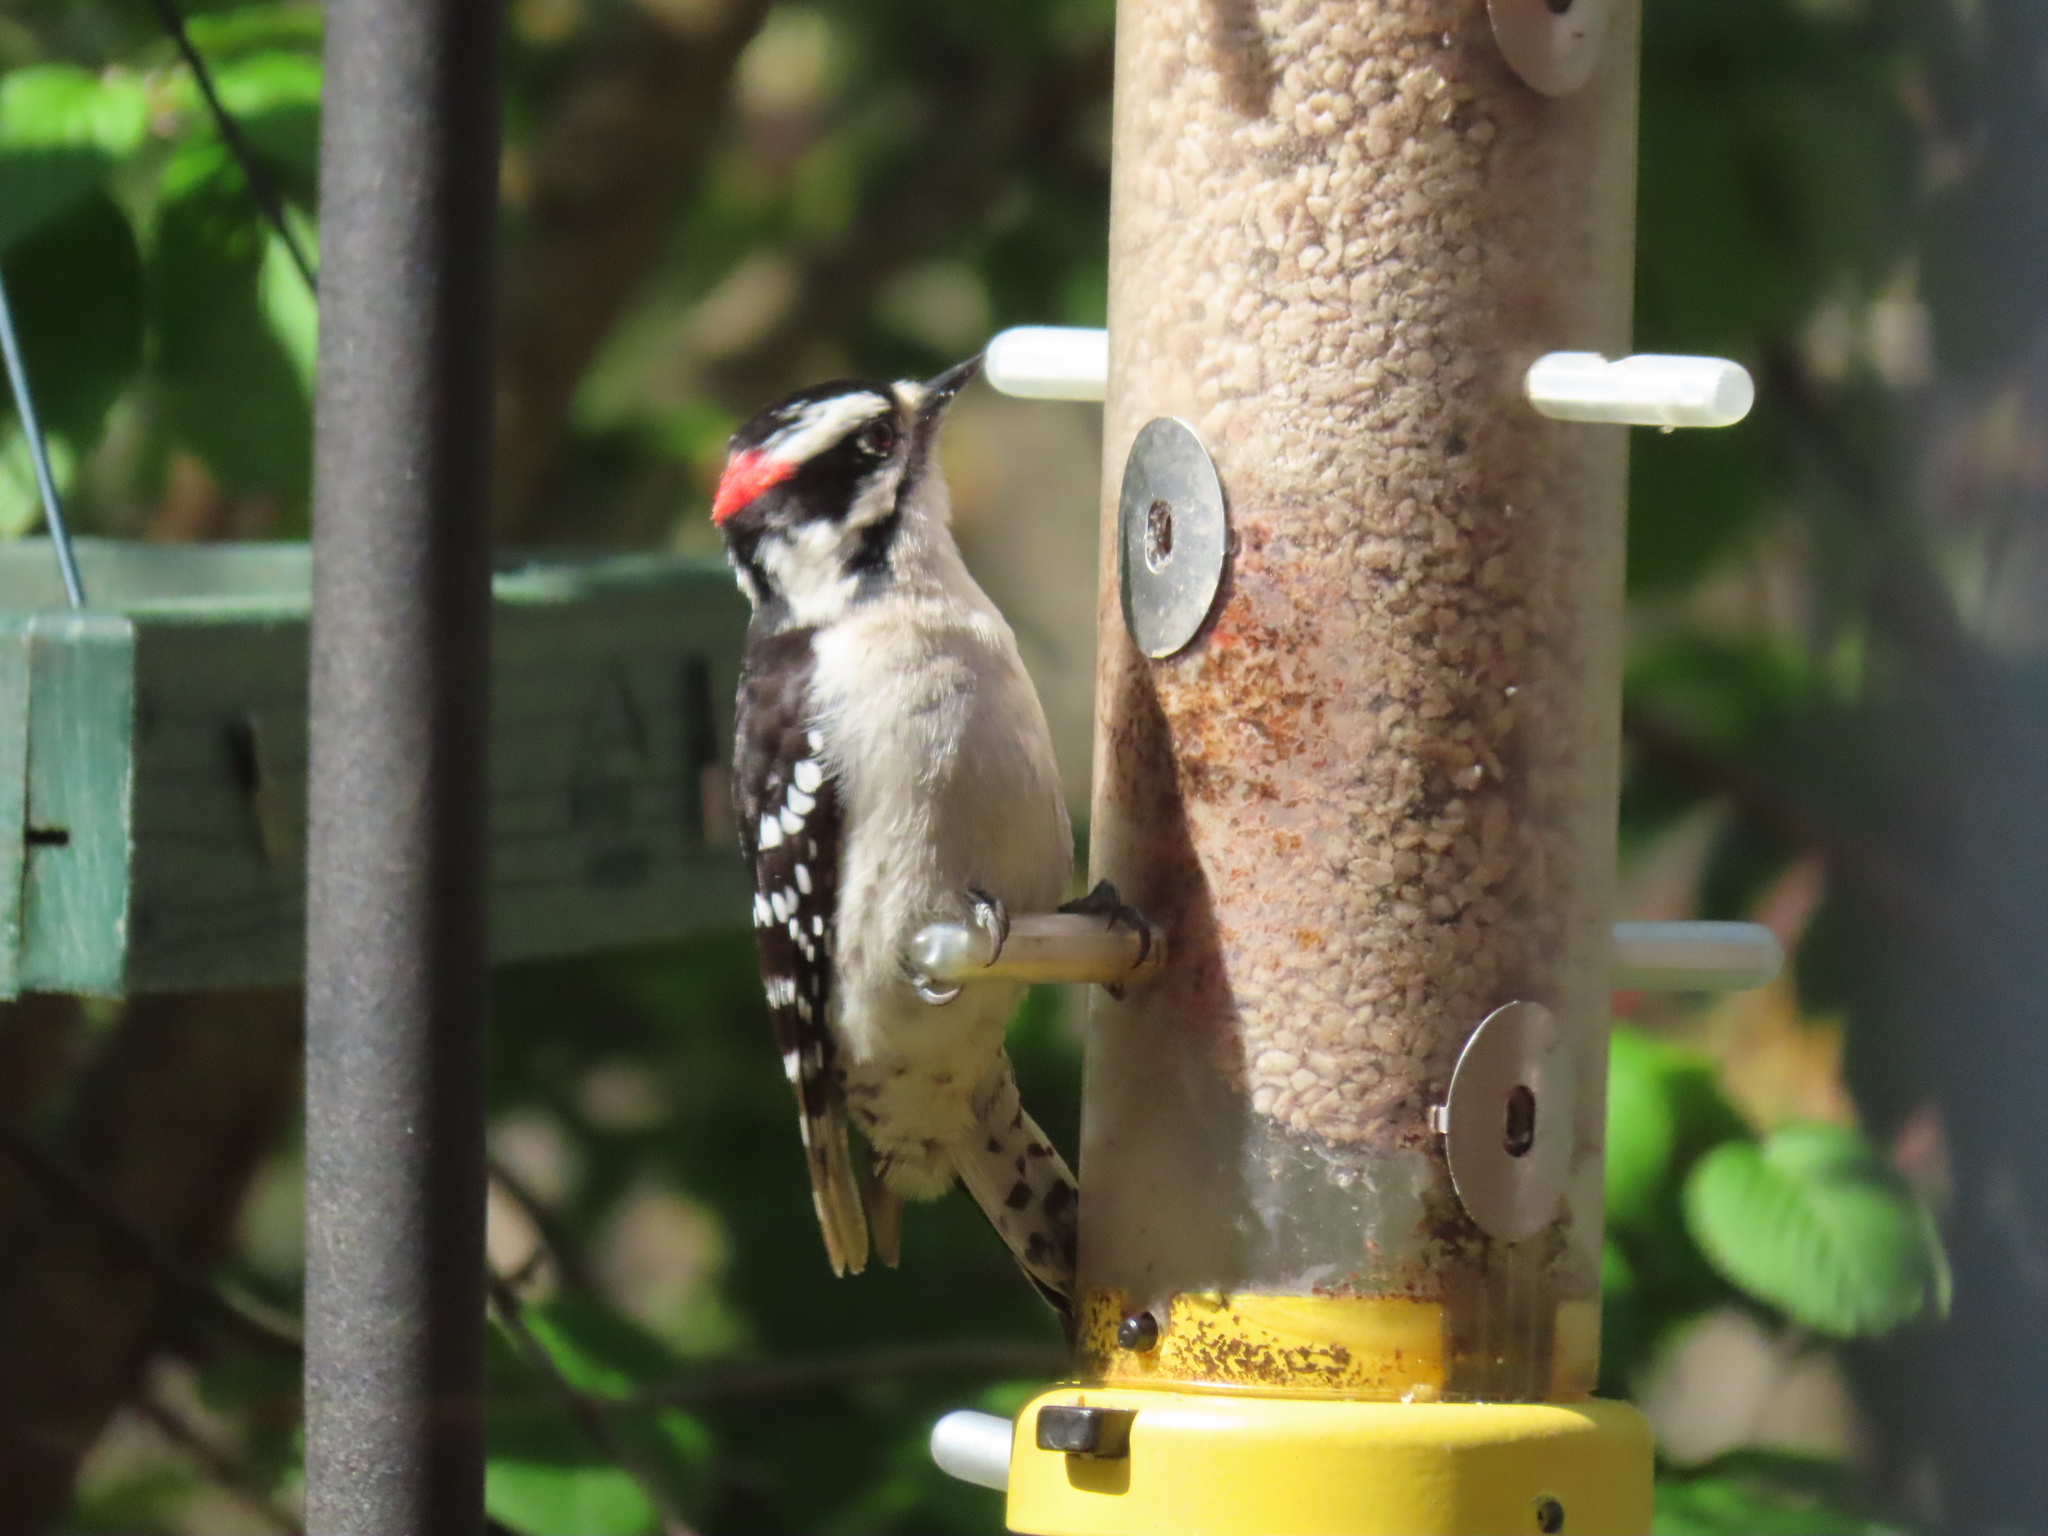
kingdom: Animalia
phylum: Chordata
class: Aves
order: Piciformes
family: Picidae
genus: Dryobates
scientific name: Dryobates pubescens
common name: Downy woodpecker
